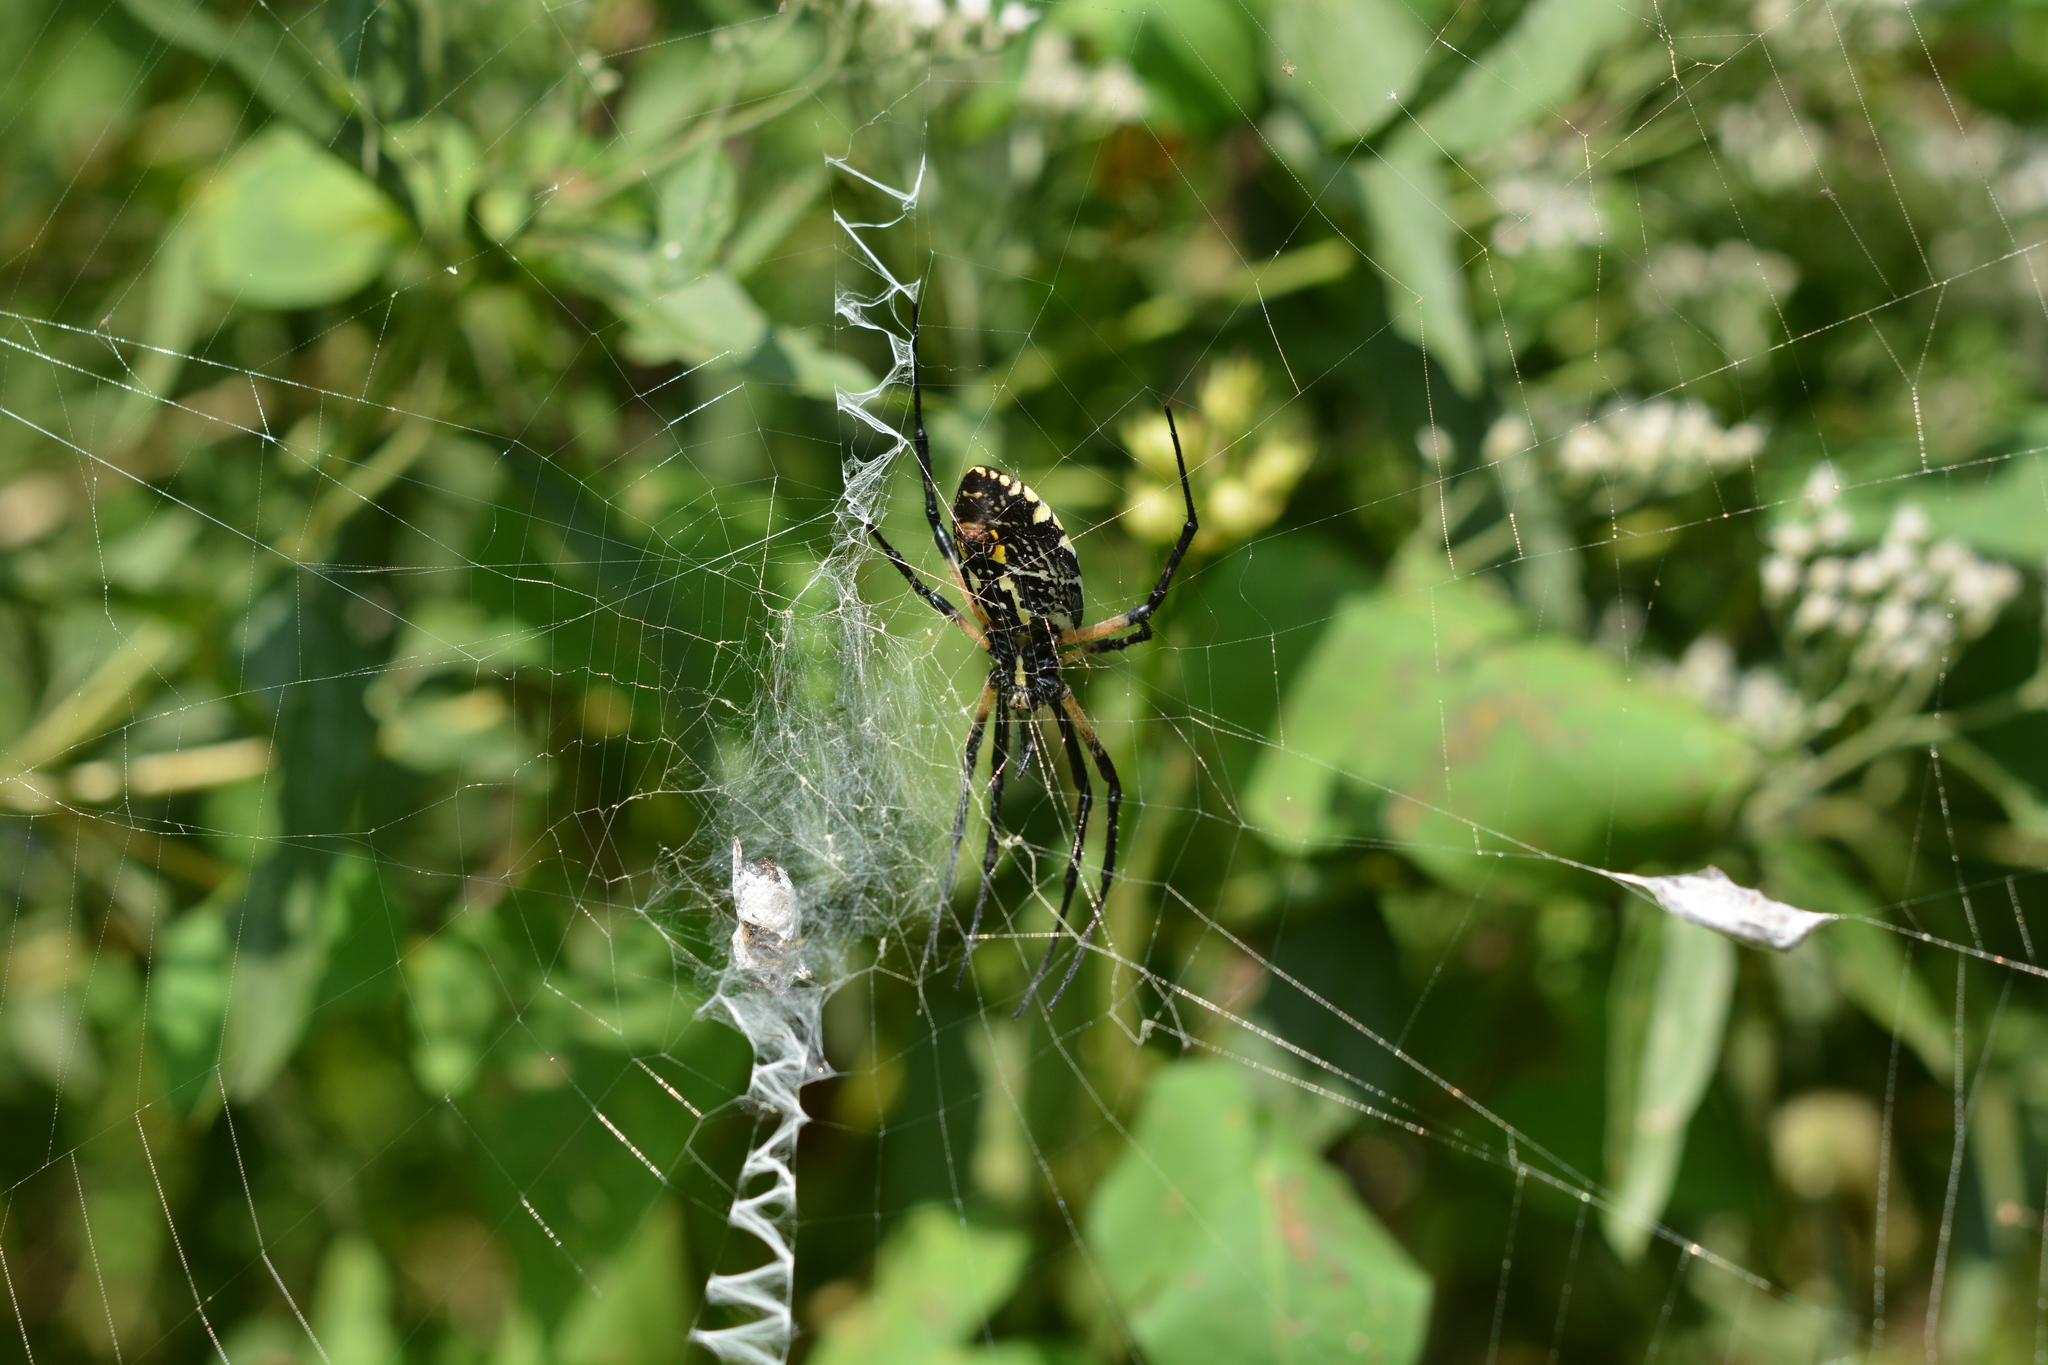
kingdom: Animalia
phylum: Arthropoda
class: Arachnida
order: Araneae
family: Araneidae
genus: Argiope
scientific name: Argiope aurantia
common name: Orb weavers
